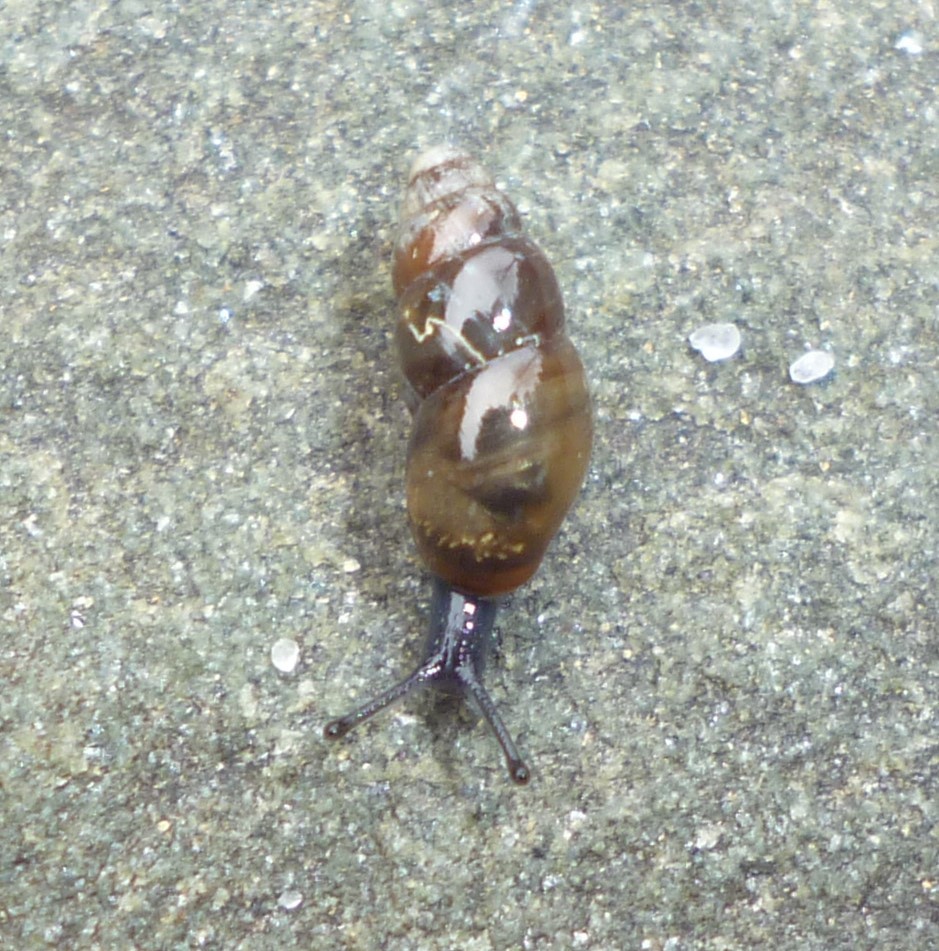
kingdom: Animalia
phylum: Mollusca
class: Gastropoda
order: Stylommatophora
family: Cochlicopidae
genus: Cochlicopa
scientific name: Cochlicopa lubrica
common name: Glossy pillar snail
